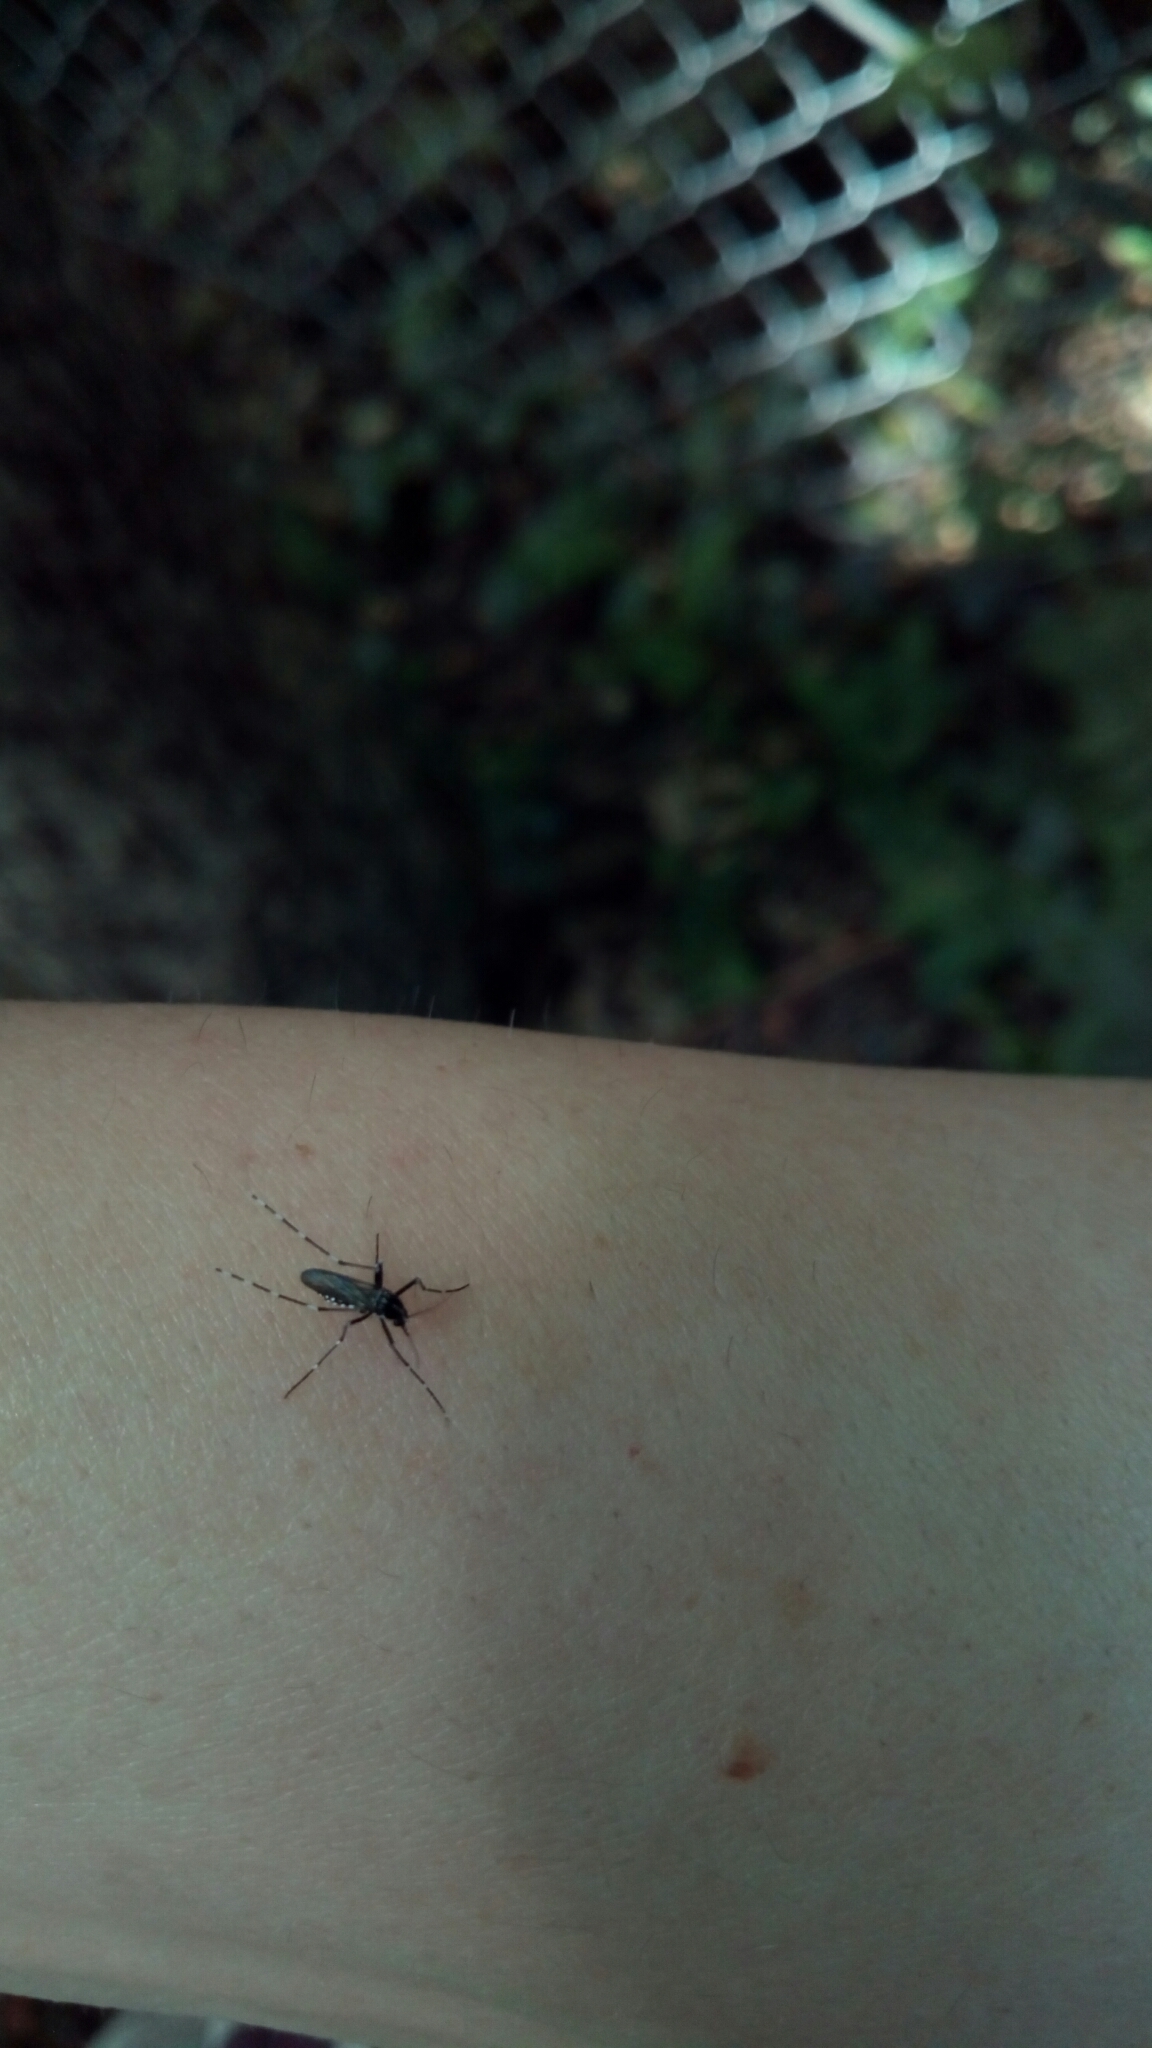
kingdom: Animalia
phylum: Arthropoda
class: Insecta
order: Diptera
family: Culicidae
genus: Aedes
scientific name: Aedes albopictus
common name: Tiger mosquito
